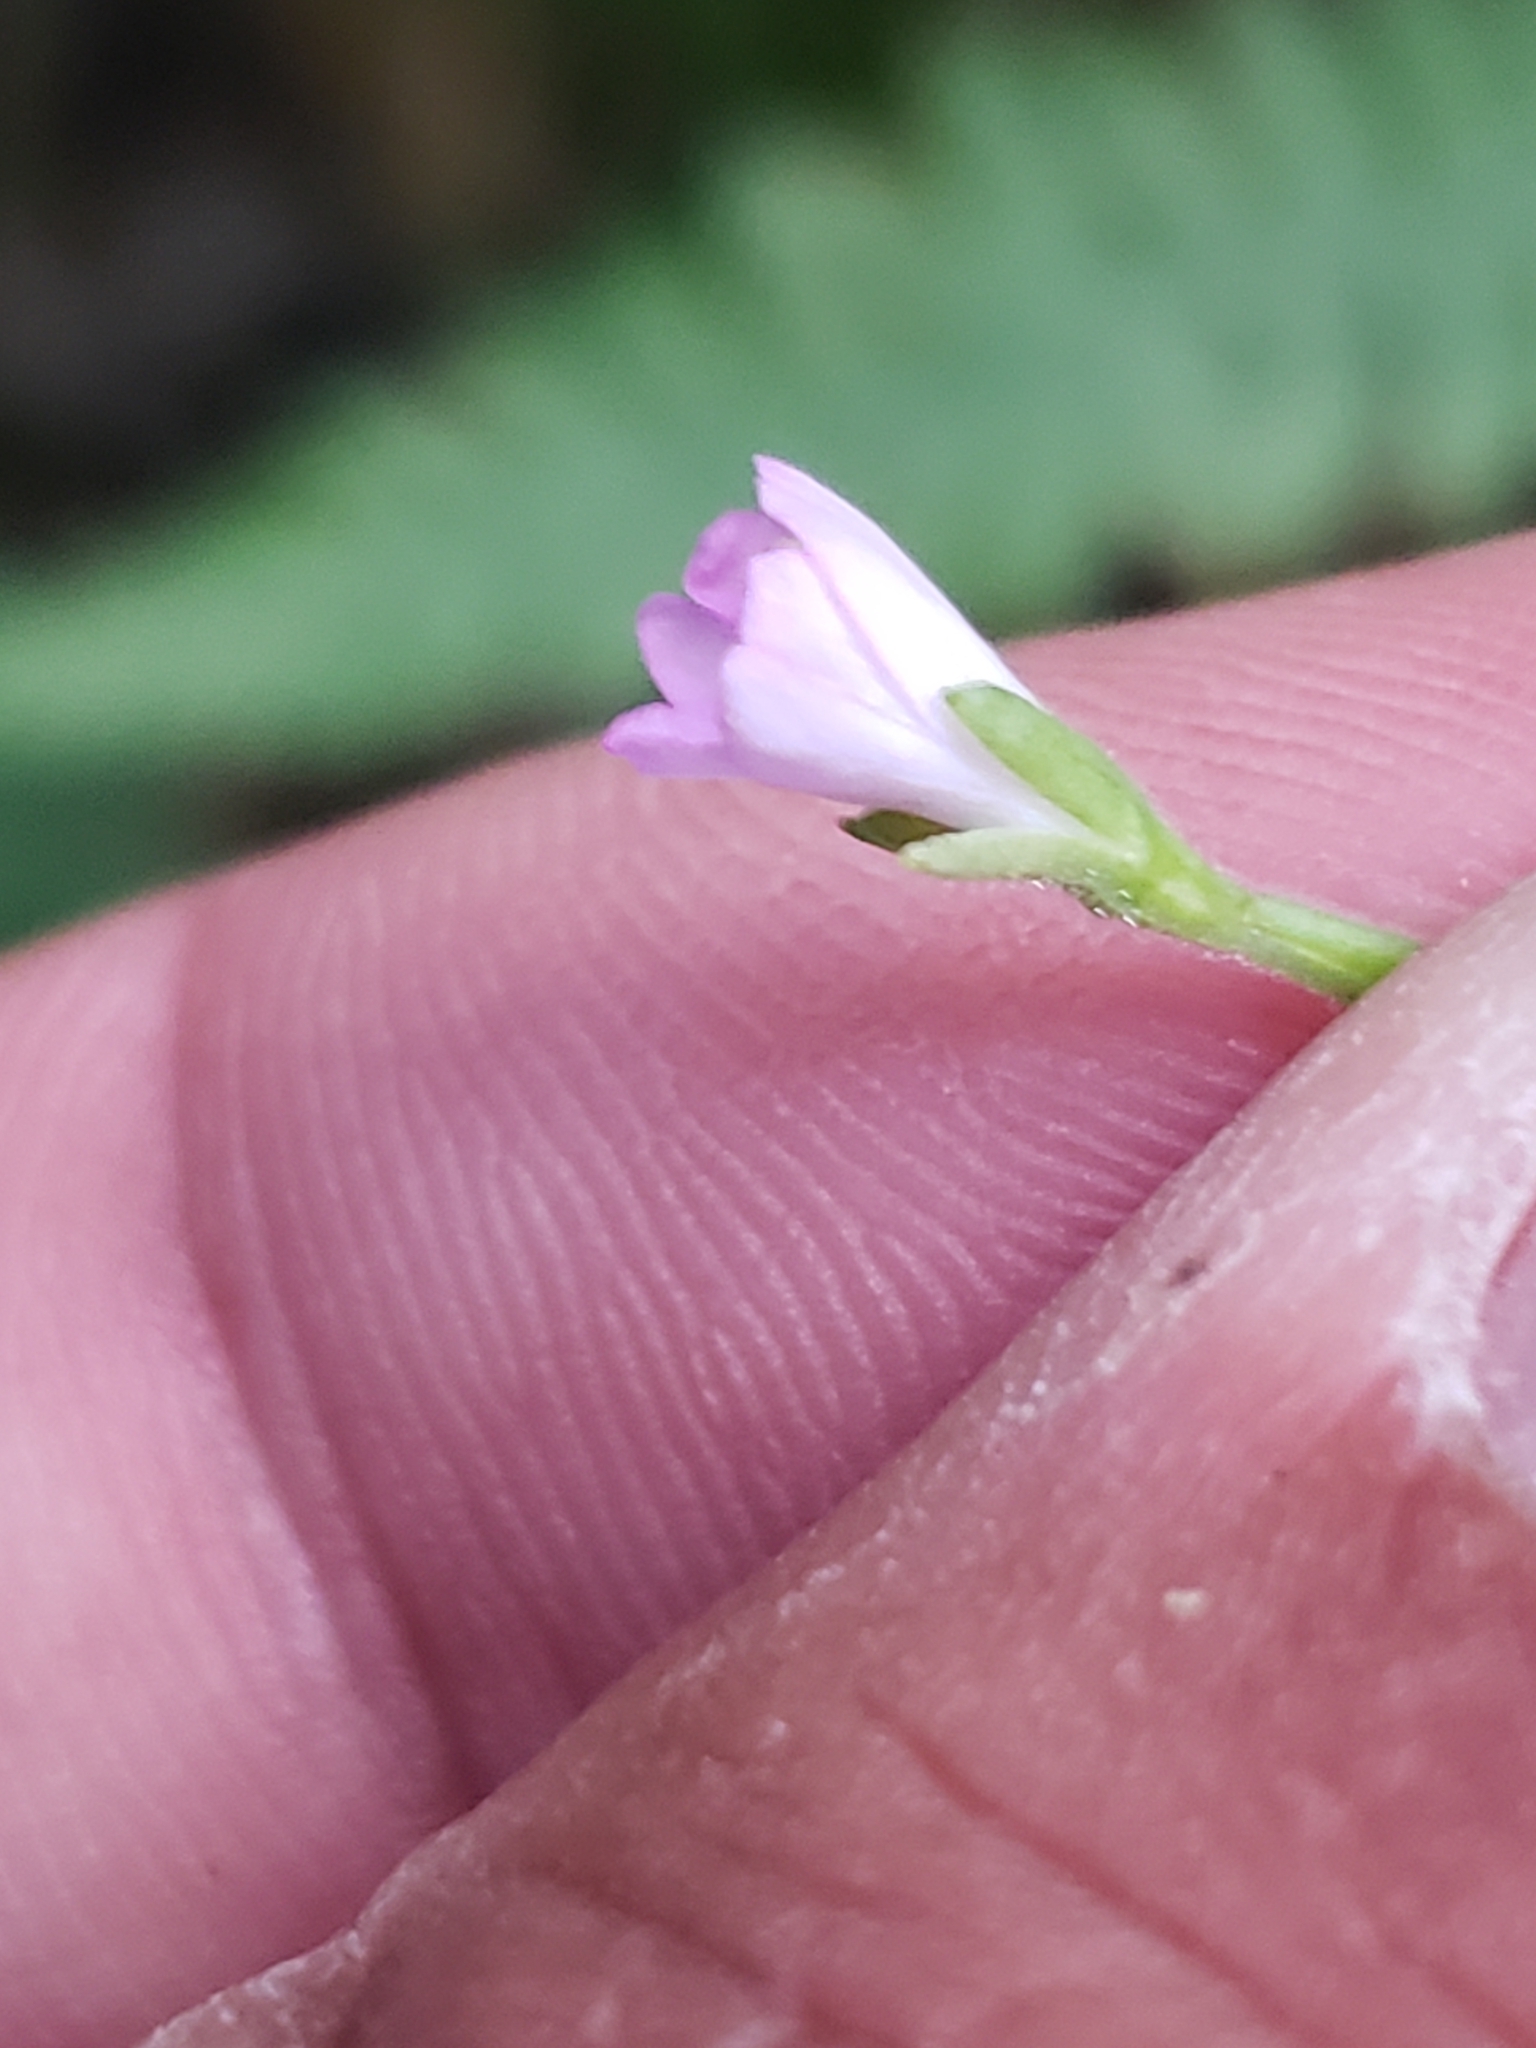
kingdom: Plantae
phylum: Tracheophyta
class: Magnoliopsida
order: Myrtales
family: Onagraceae
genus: Epilobium
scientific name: Epilobium montanum
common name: Broad-leaved willowherb
